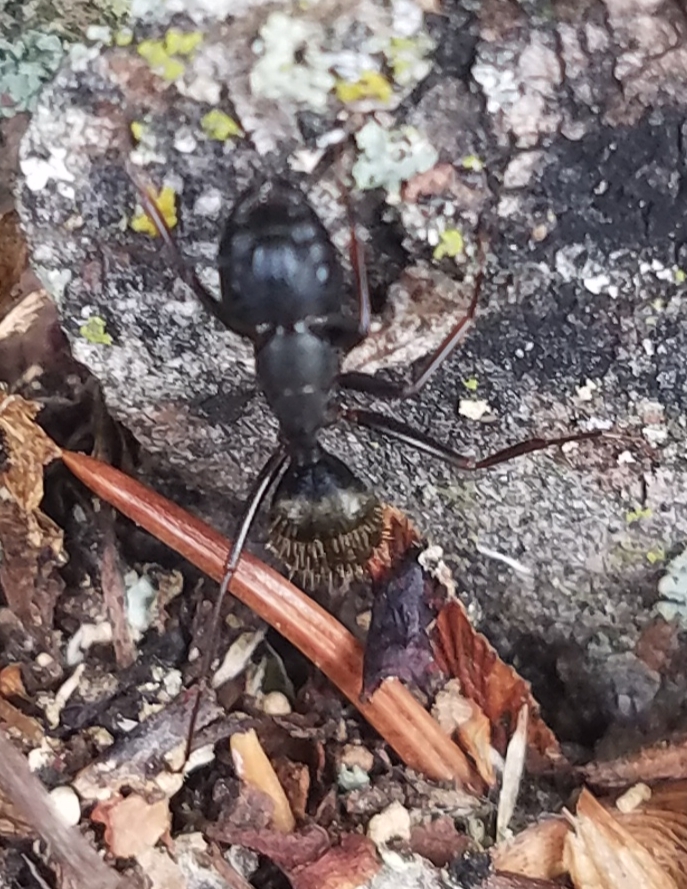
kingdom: Animalia
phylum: Arthropoda
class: Insecta
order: Hymenoptera
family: Formicidae
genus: Camponotus
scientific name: Camponotus pennsylvanicus
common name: Black carpenter ant
